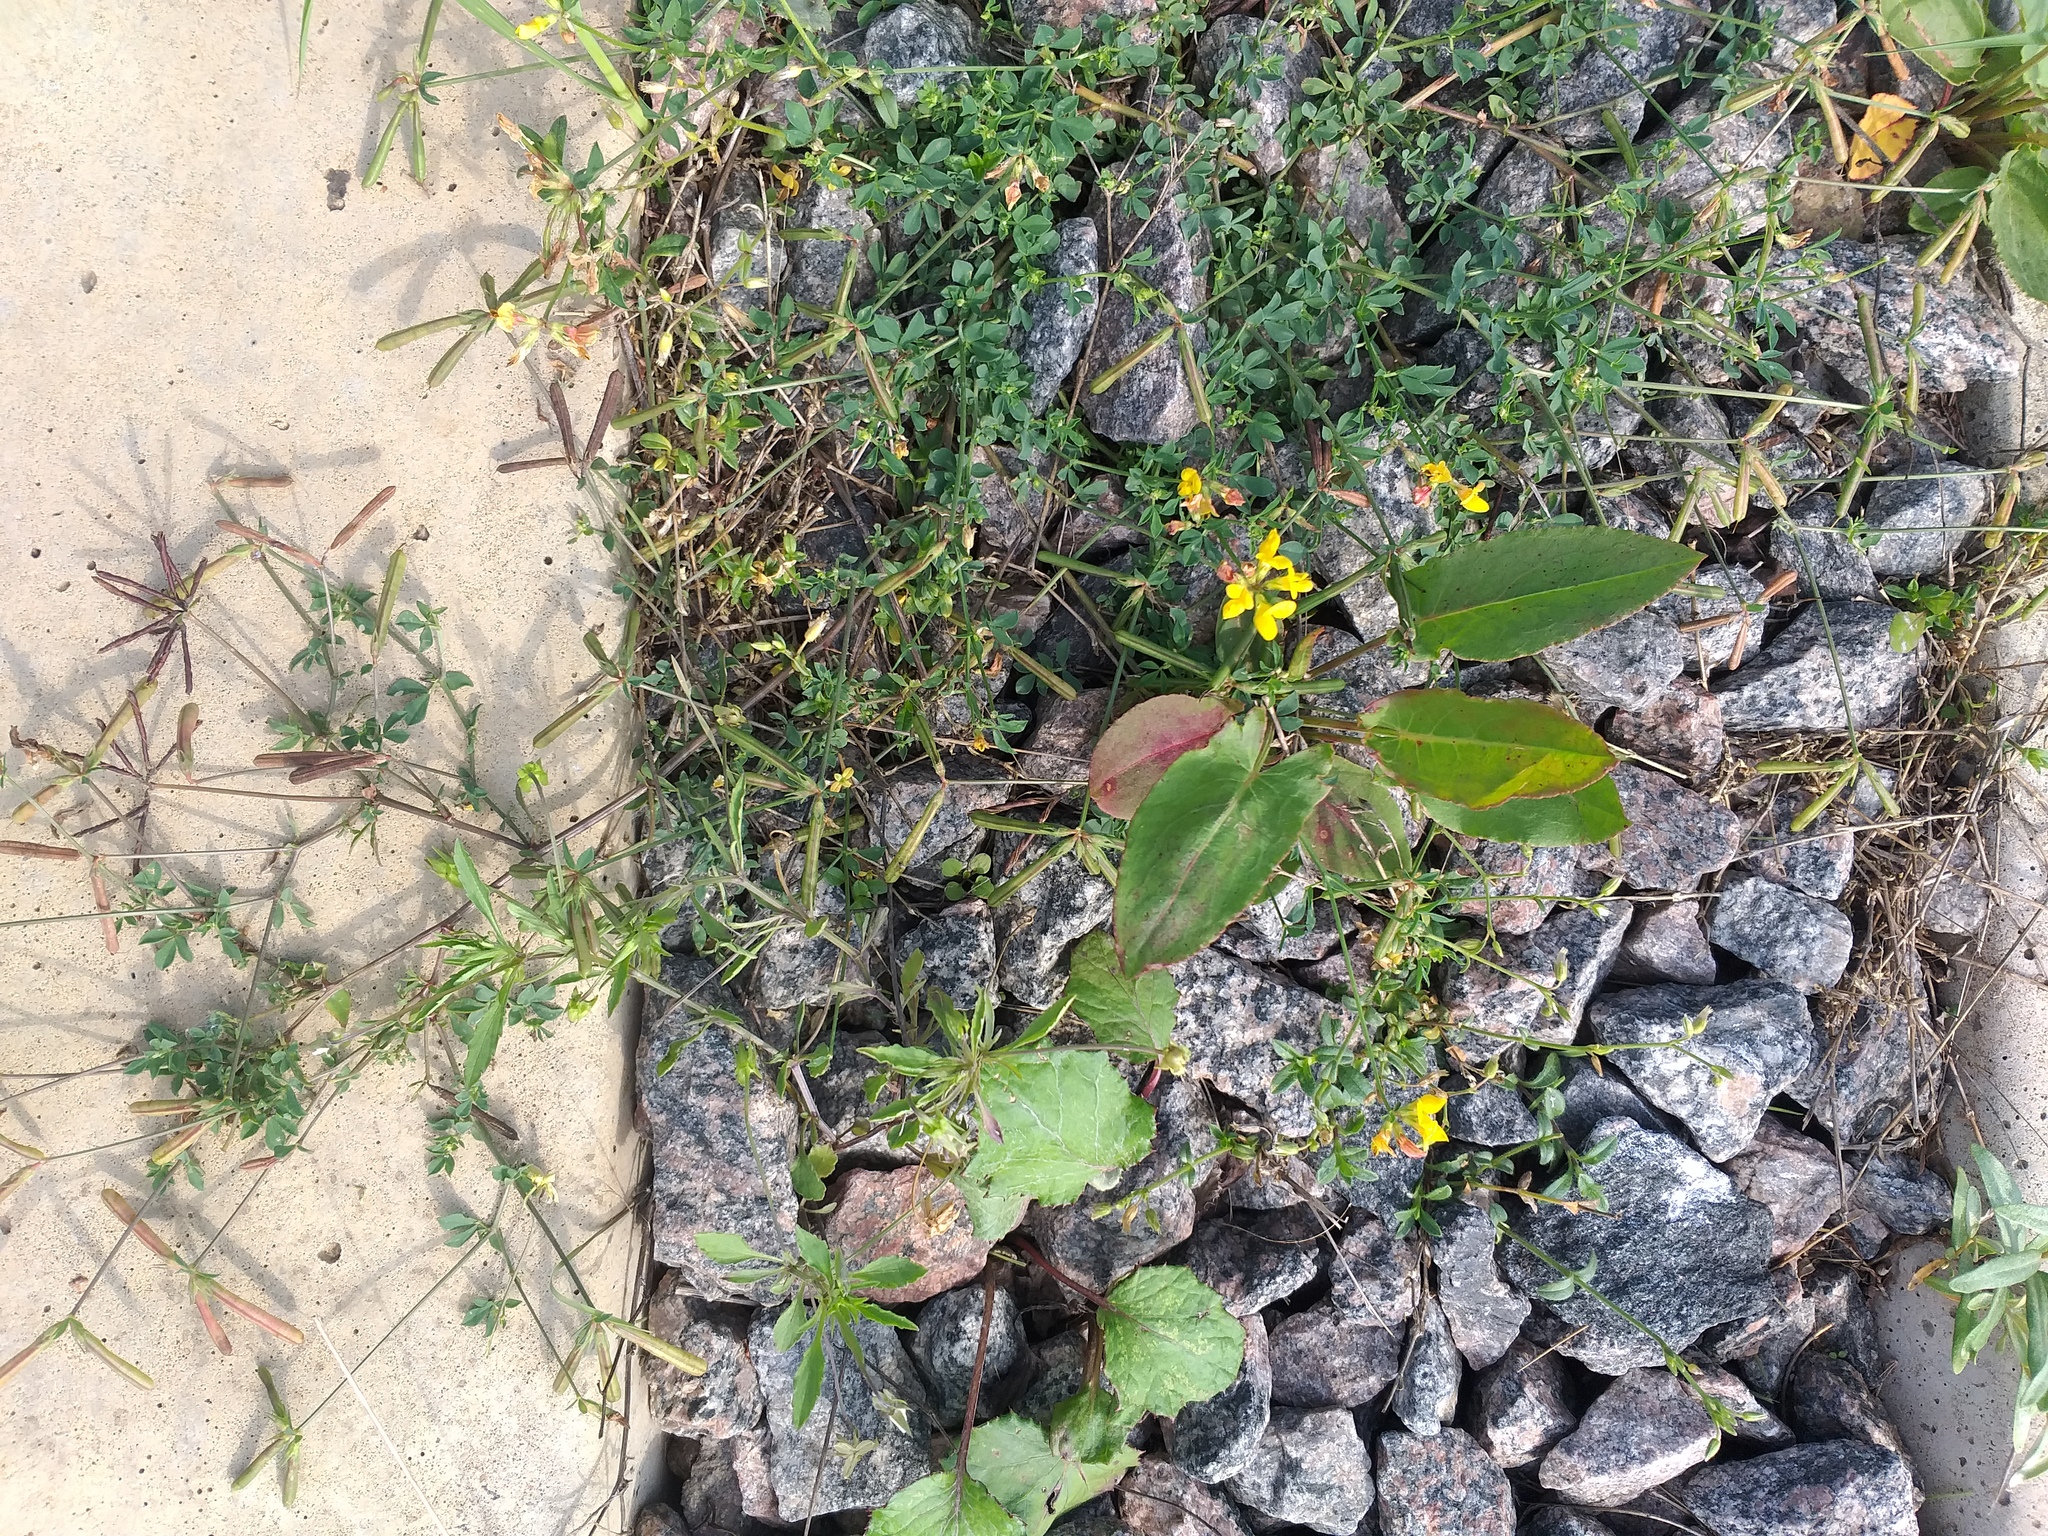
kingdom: Plantae
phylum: Tracheophyta
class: Magnoliopsida
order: Fabales
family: Fabaceae
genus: Lotus
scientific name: Lotus corniculatus
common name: Common bird's-foot-trefoil
